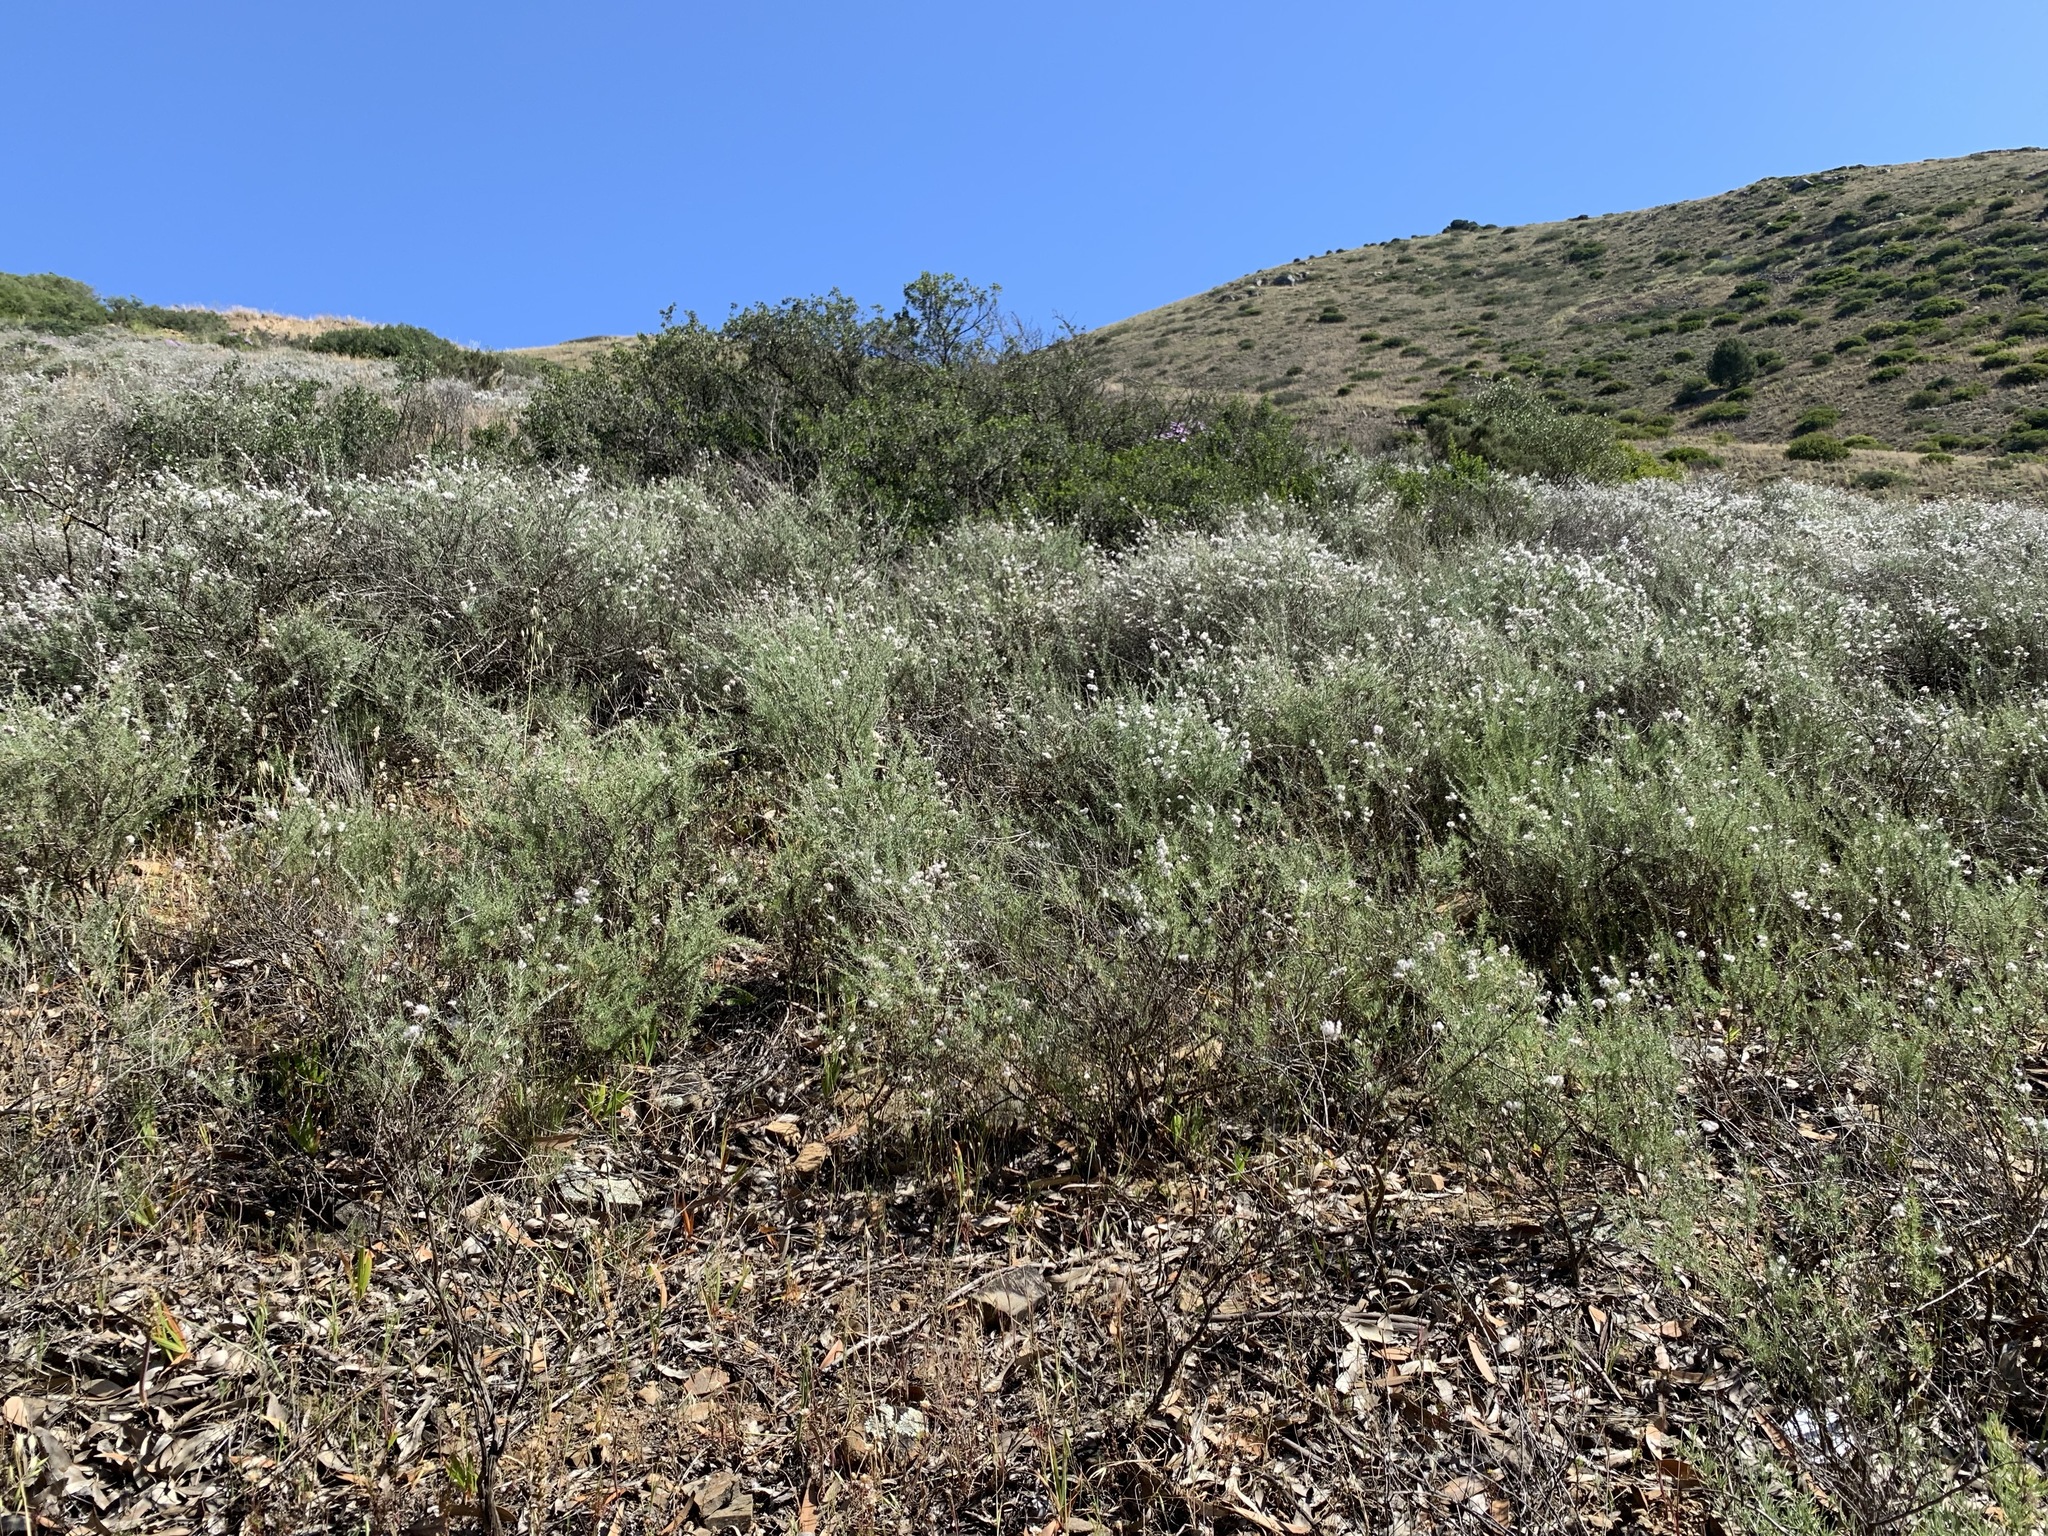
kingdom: Plantae
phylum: Tracheophyta
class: Magnoliopsida
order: Asterales
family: Asteraceae
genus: Eriocephalus
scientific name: Eriocephalus africanus
